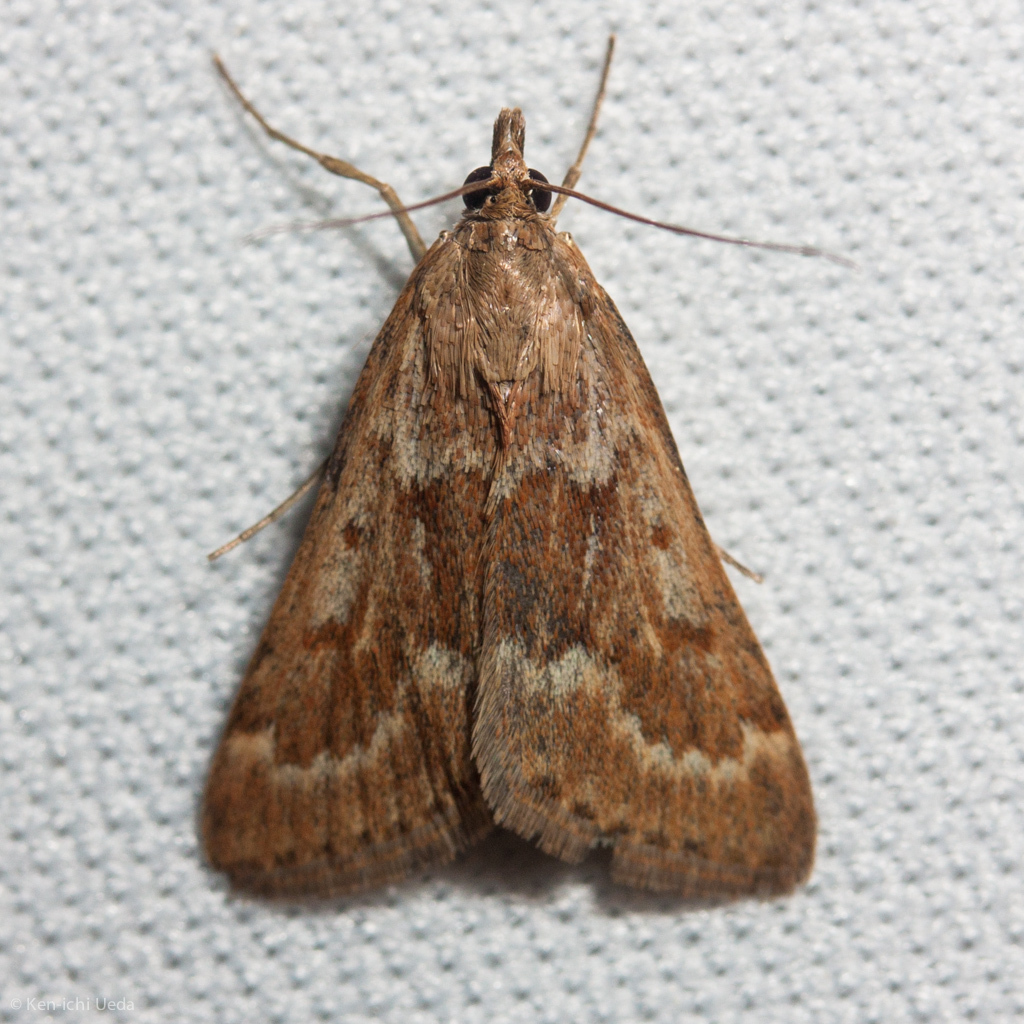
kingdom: Animalia
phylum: Arthropoda
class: Insecta
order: Lepidoptera
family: Crambidae
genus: Achyra
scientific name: Achyra rantalis
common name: Garden webworm
